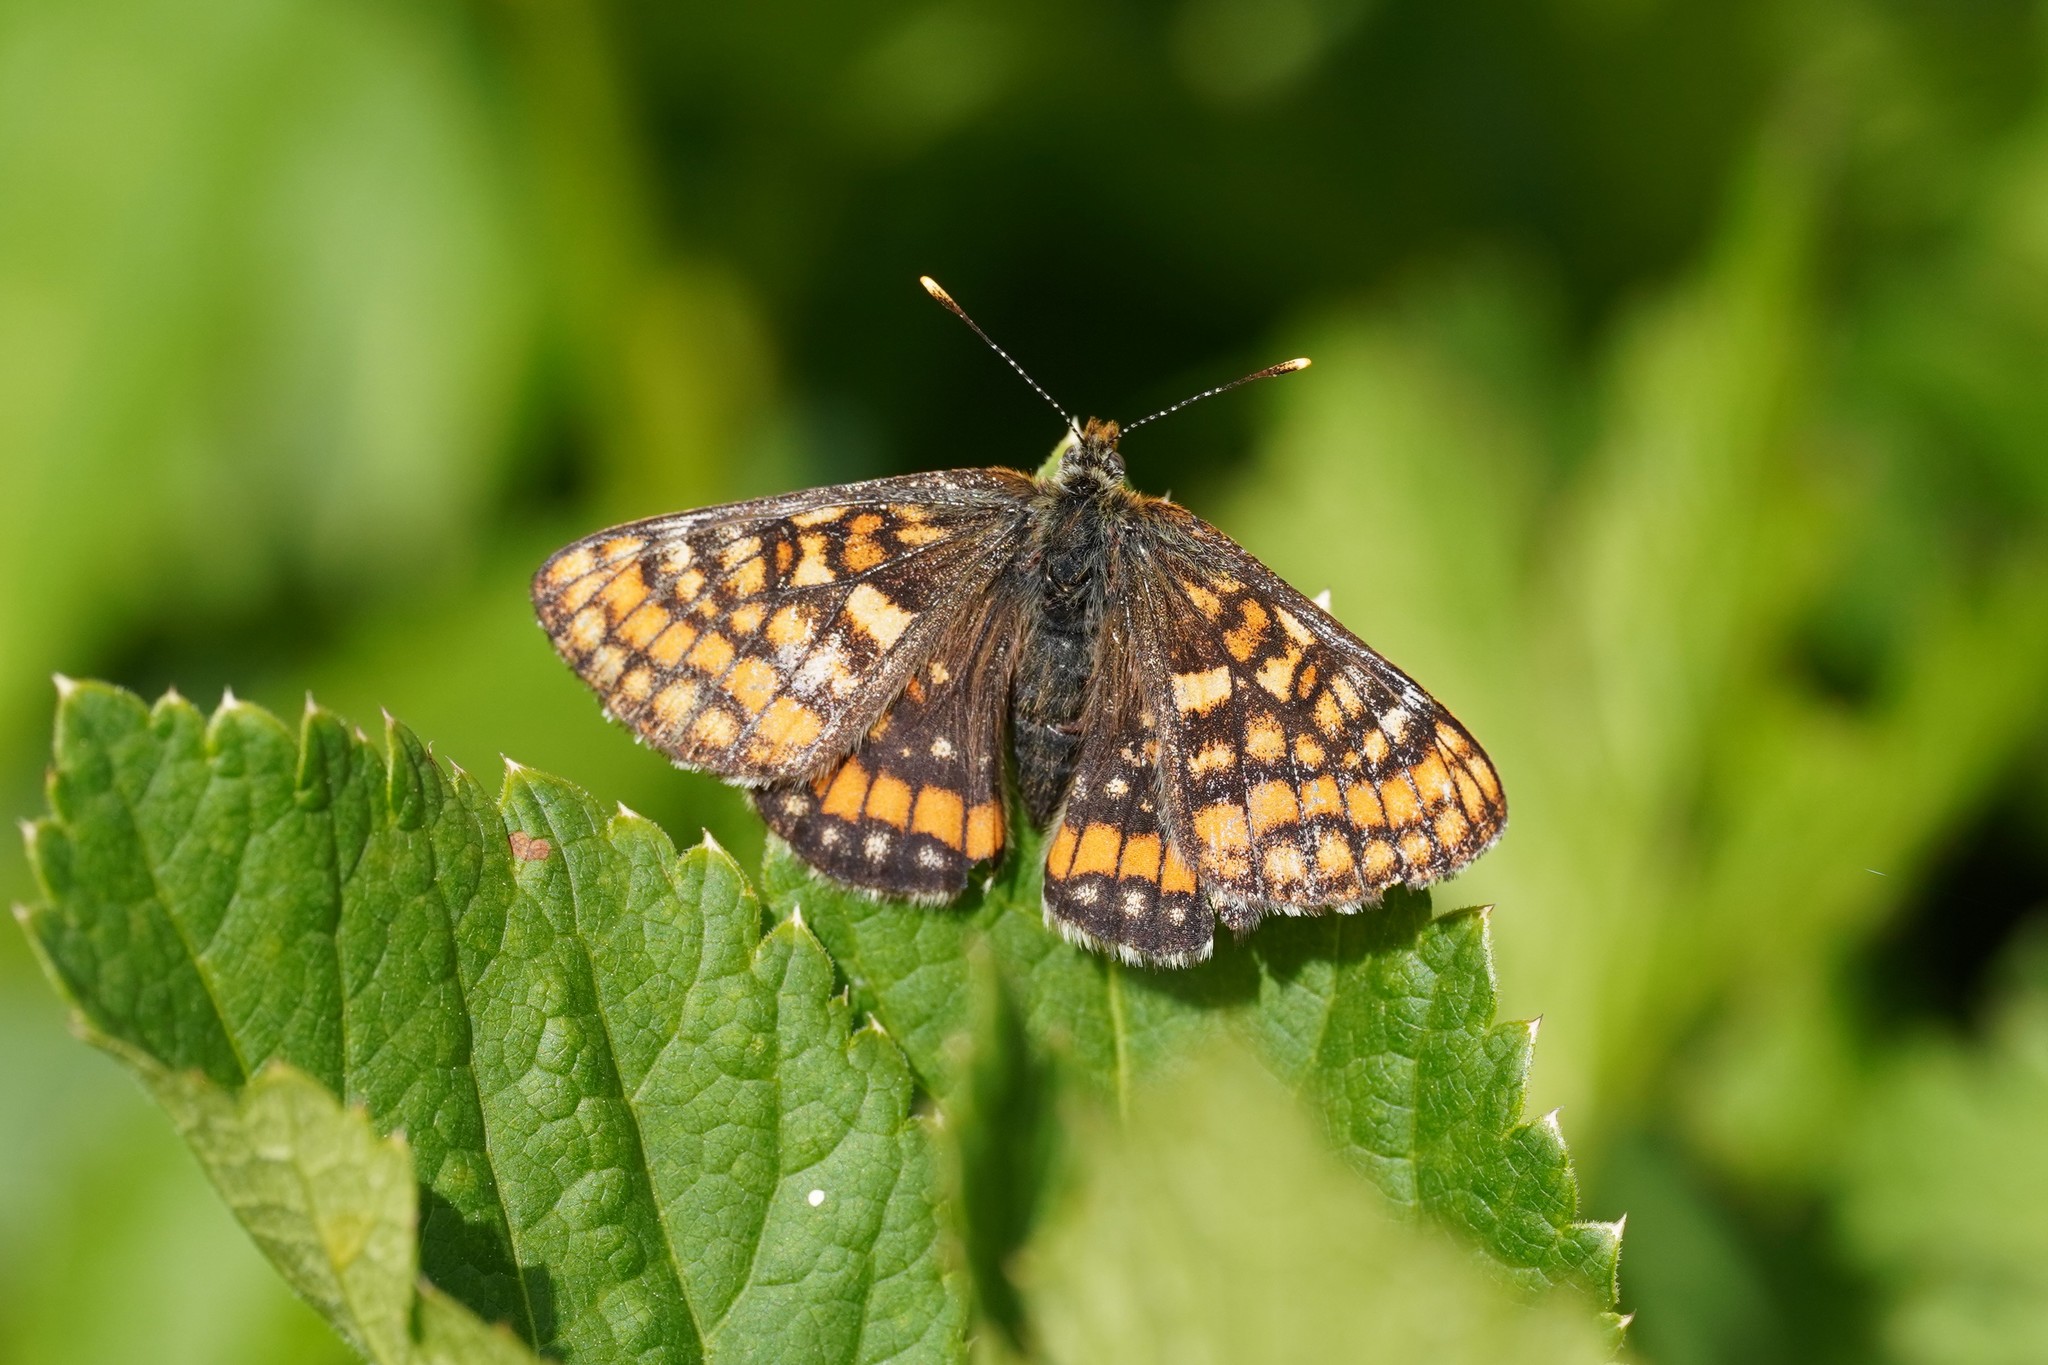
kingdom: Animalia
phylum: Arthropoda
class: Insecta
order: Lepidoptera
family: Nymphalidae
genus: Hypodryas
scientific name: Hypodryas intermedia
